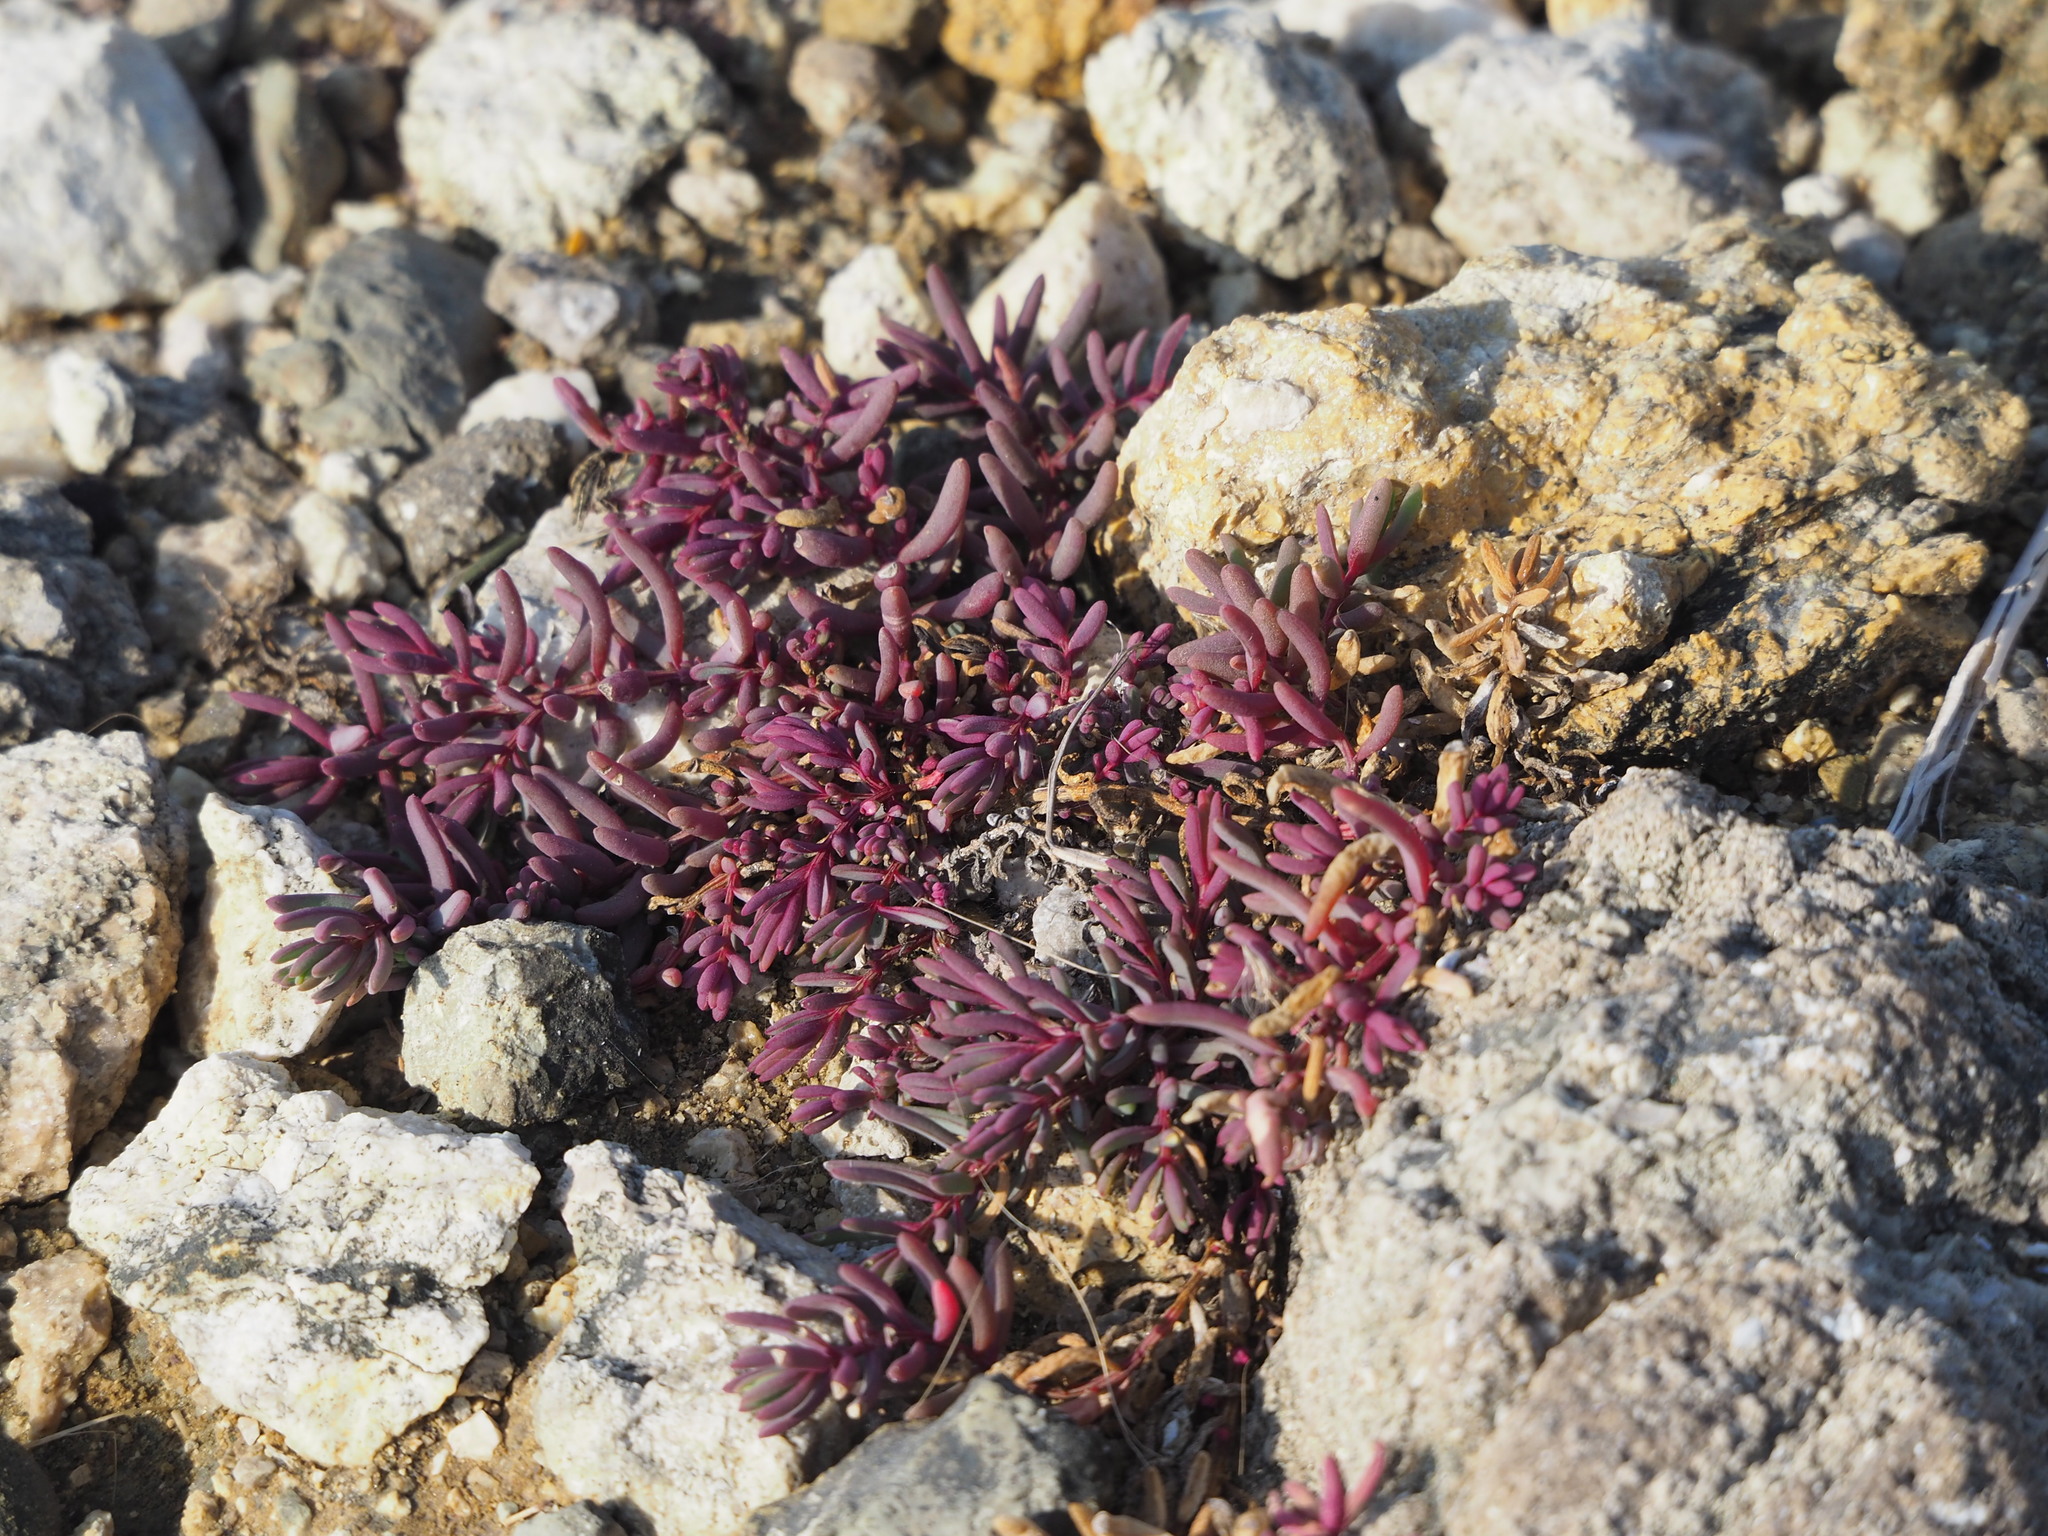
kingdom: Plantae
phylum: Tracheophyta
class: Magnoliopsida
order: Caryophyllales
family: Amaranthaceae
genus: Suaeda
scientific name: Suaeda maritima
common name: Annual sea-blite
